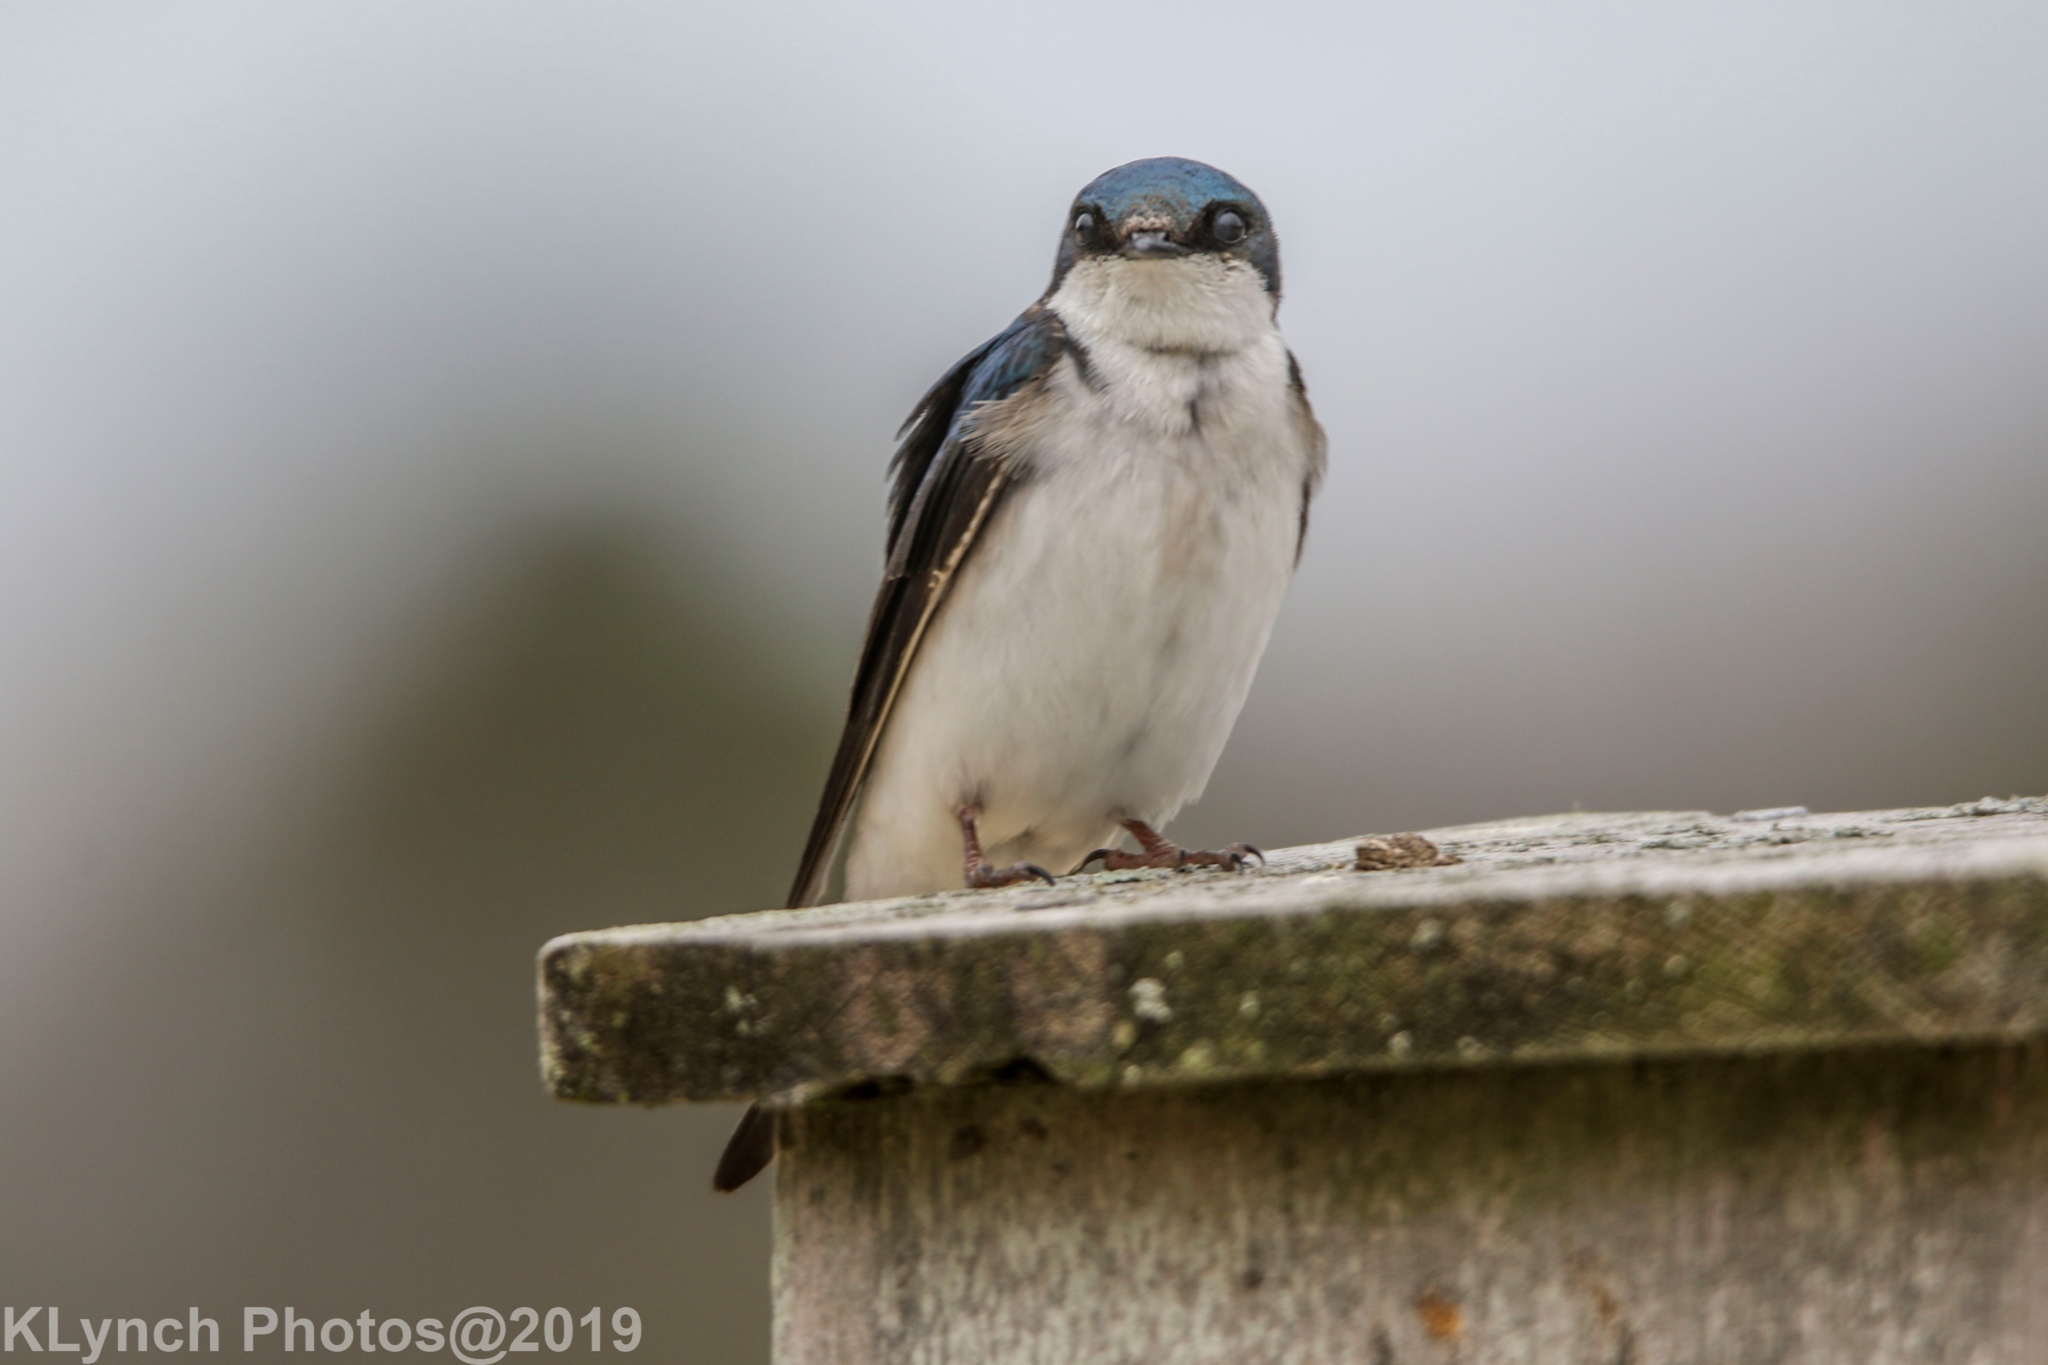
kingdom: Animalia
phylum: Chordata
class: Aves
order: Passeriformes
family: Hirundinidae
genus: Tachycineta
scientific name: Tachycineta bicolor
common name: Tree swallow
